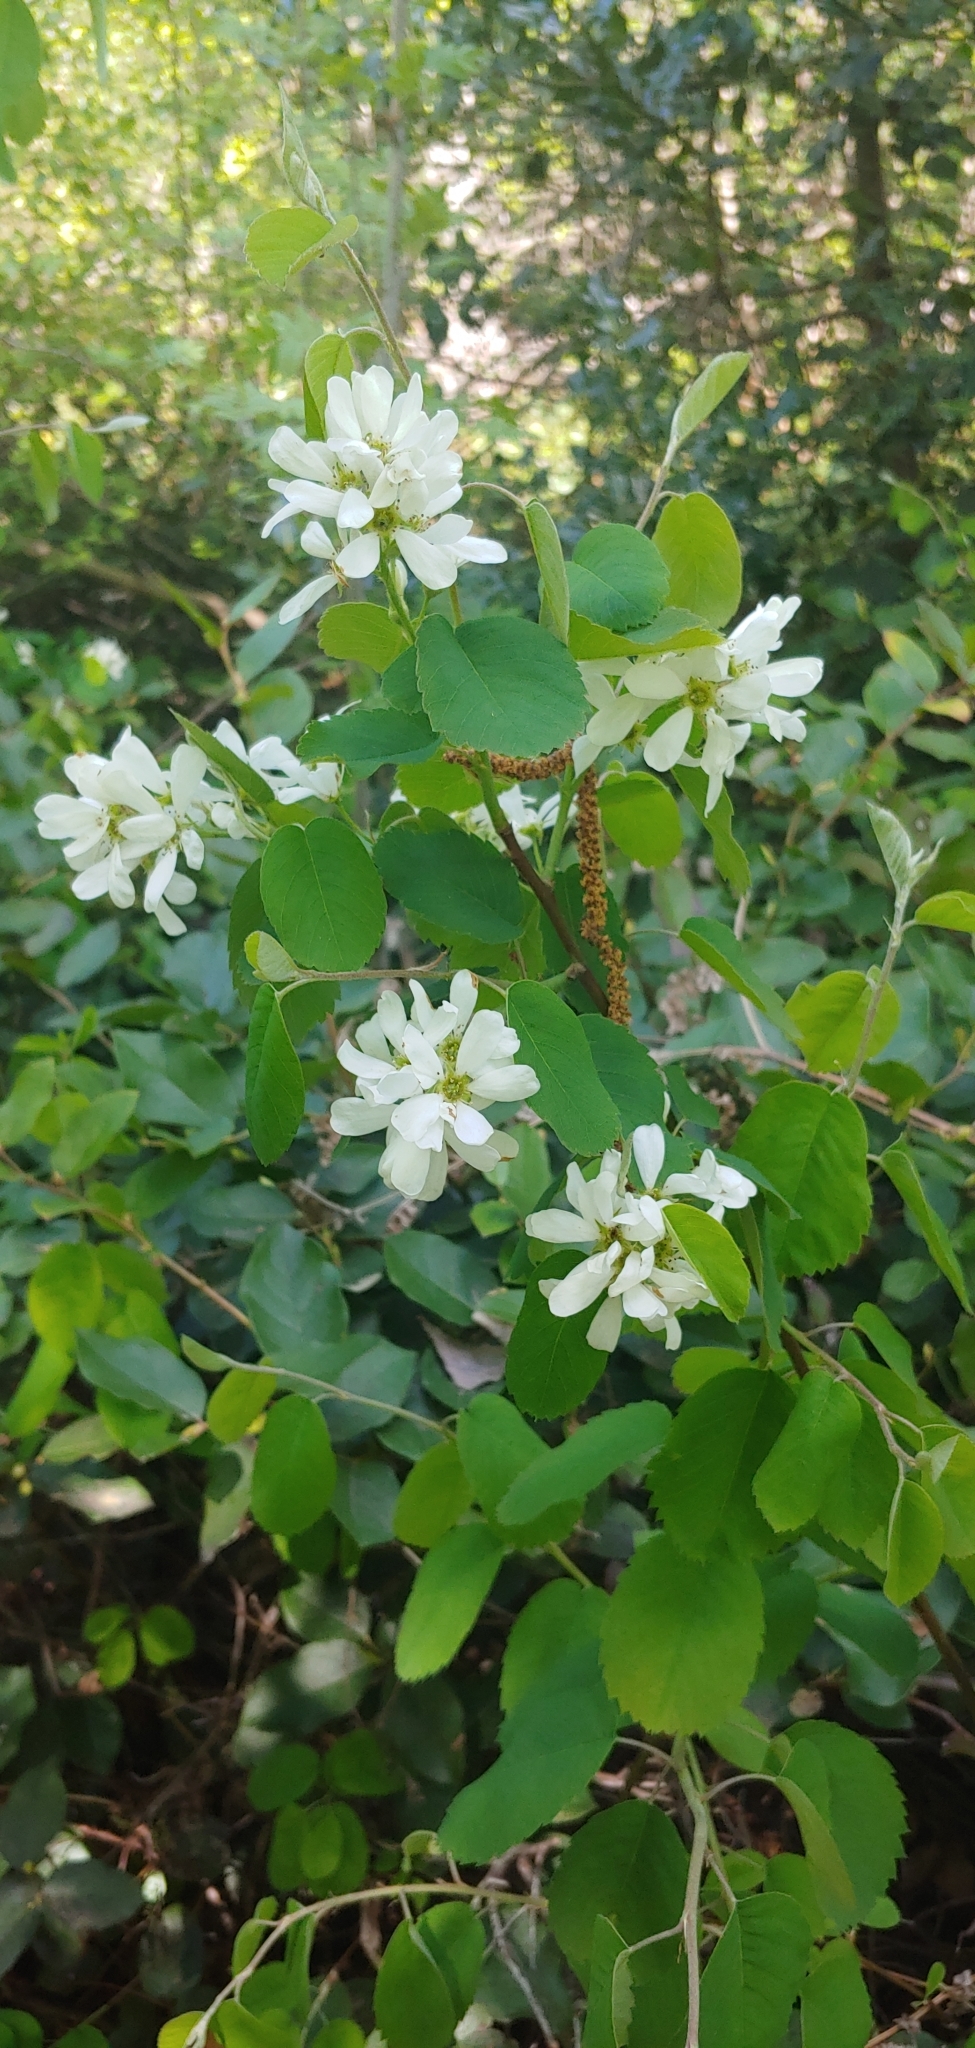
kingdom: Plantae
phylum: Tracheophyta
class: Magnoliopsida
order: Rosales
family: Rosaceae
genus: Amelanchier
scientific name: Amelanchier alnifolia
